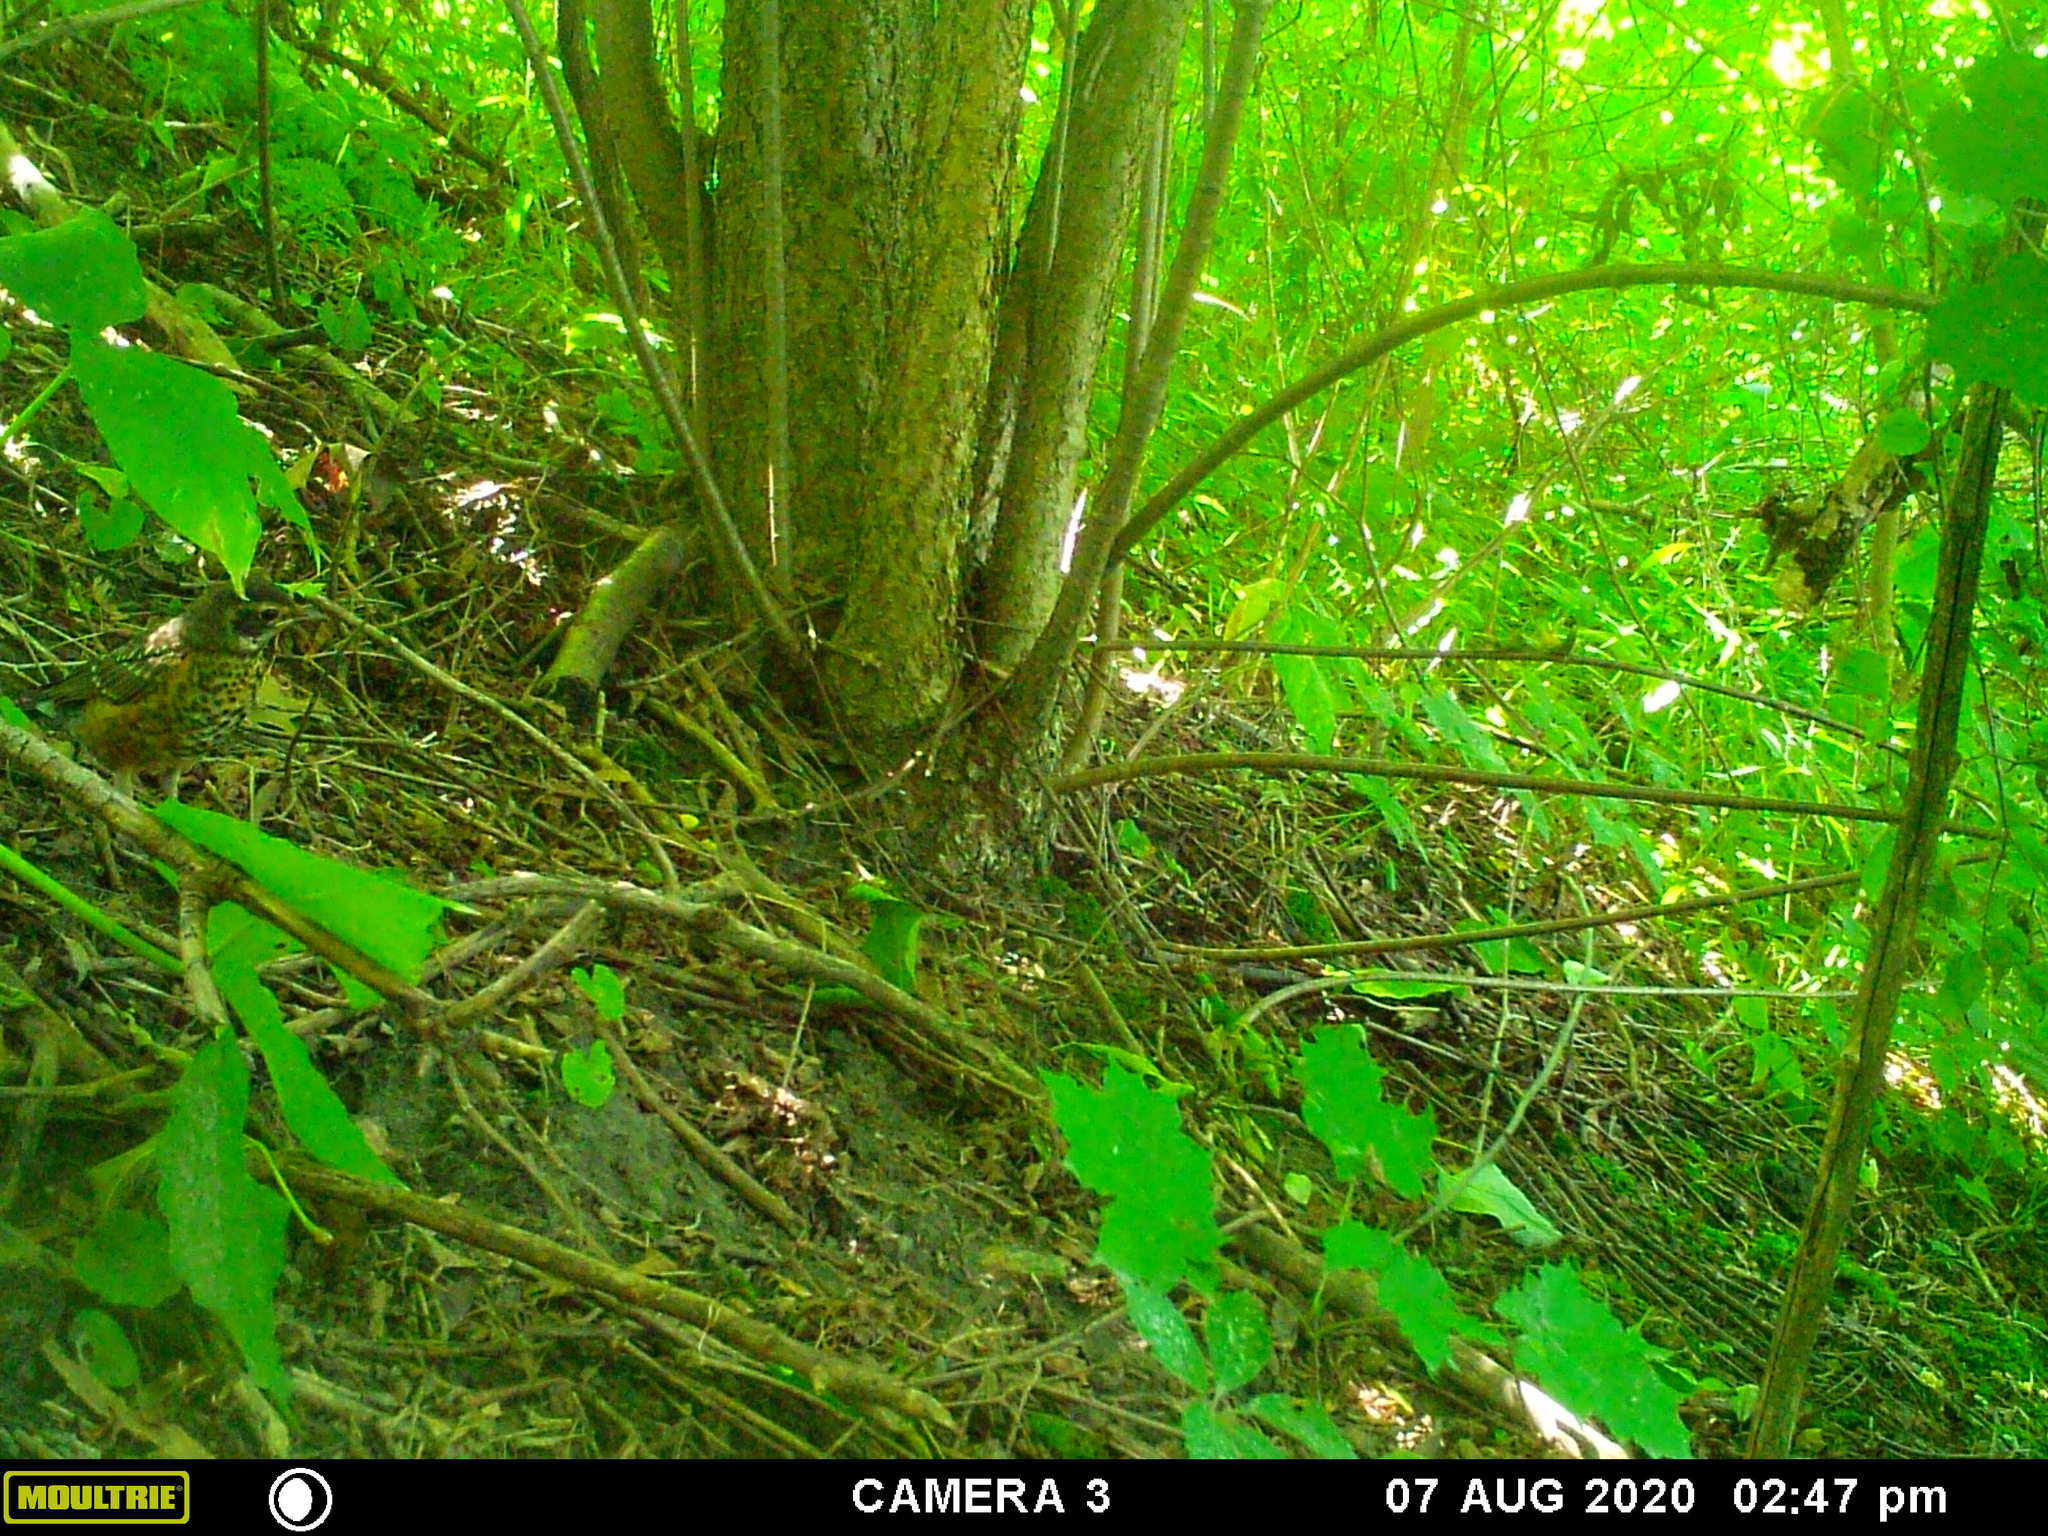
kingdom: Animalia
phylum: Chordata
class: Aves
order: Passeriformes
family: Turdidae
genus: Turdus
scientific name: Turdus migratorius
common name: American robin
